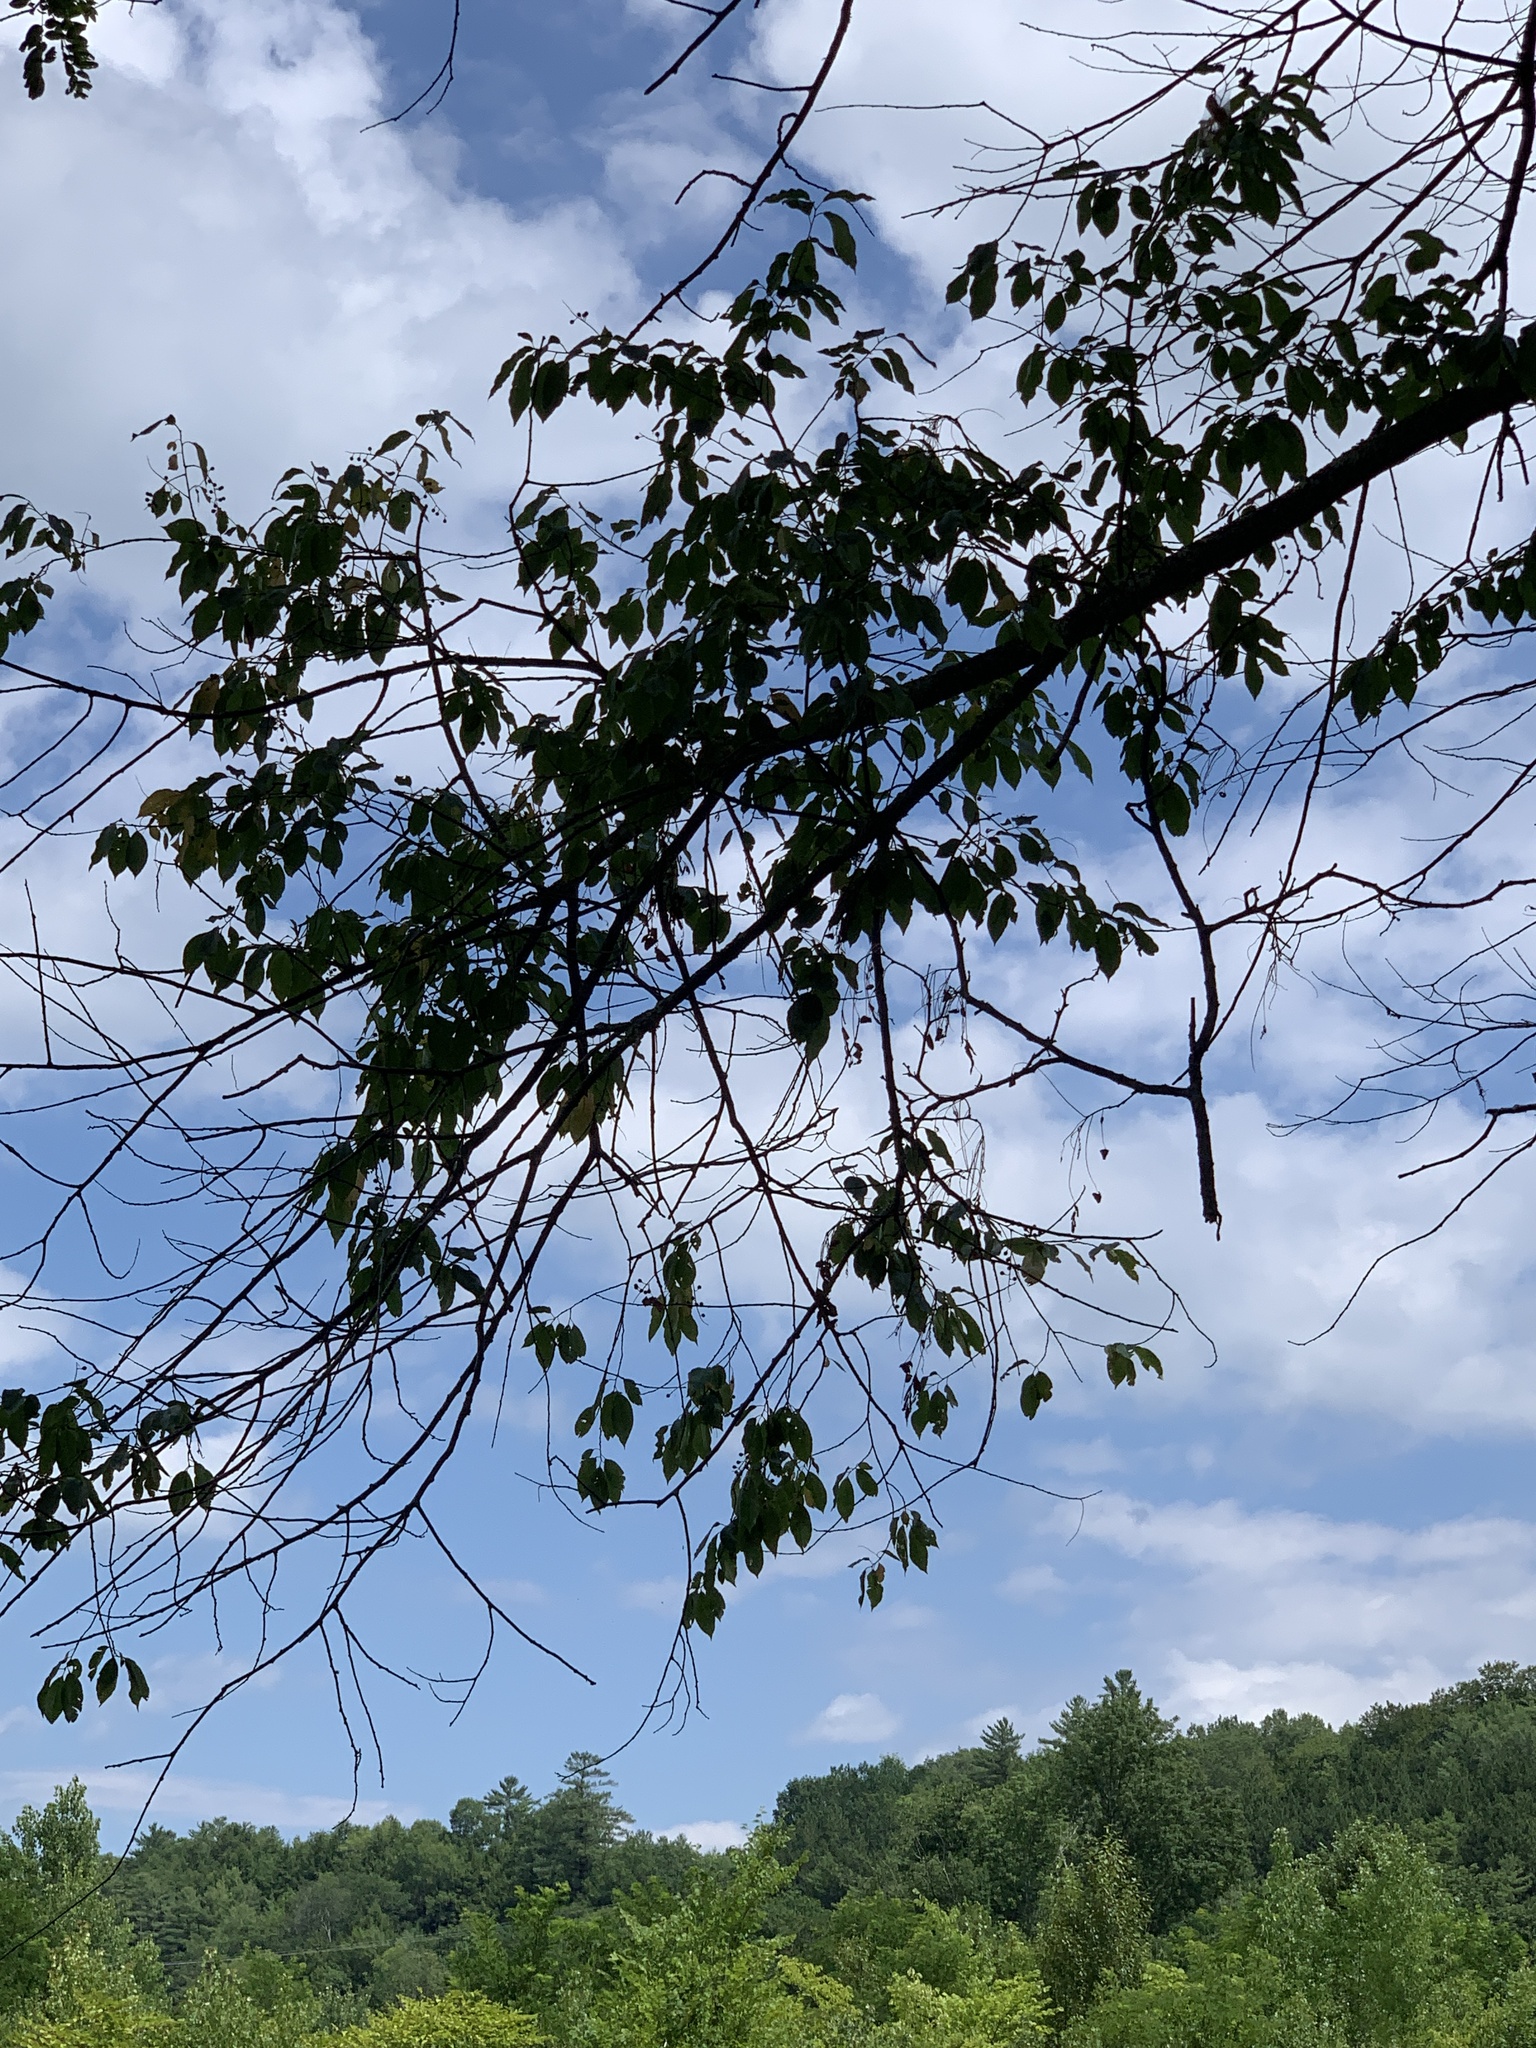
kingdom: Plantae
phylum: Tracheophyta
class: Magnoliopsida
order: Rosales
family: Rosaceae
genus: Prunus
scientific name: Prunus serotina
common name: Black cherry
